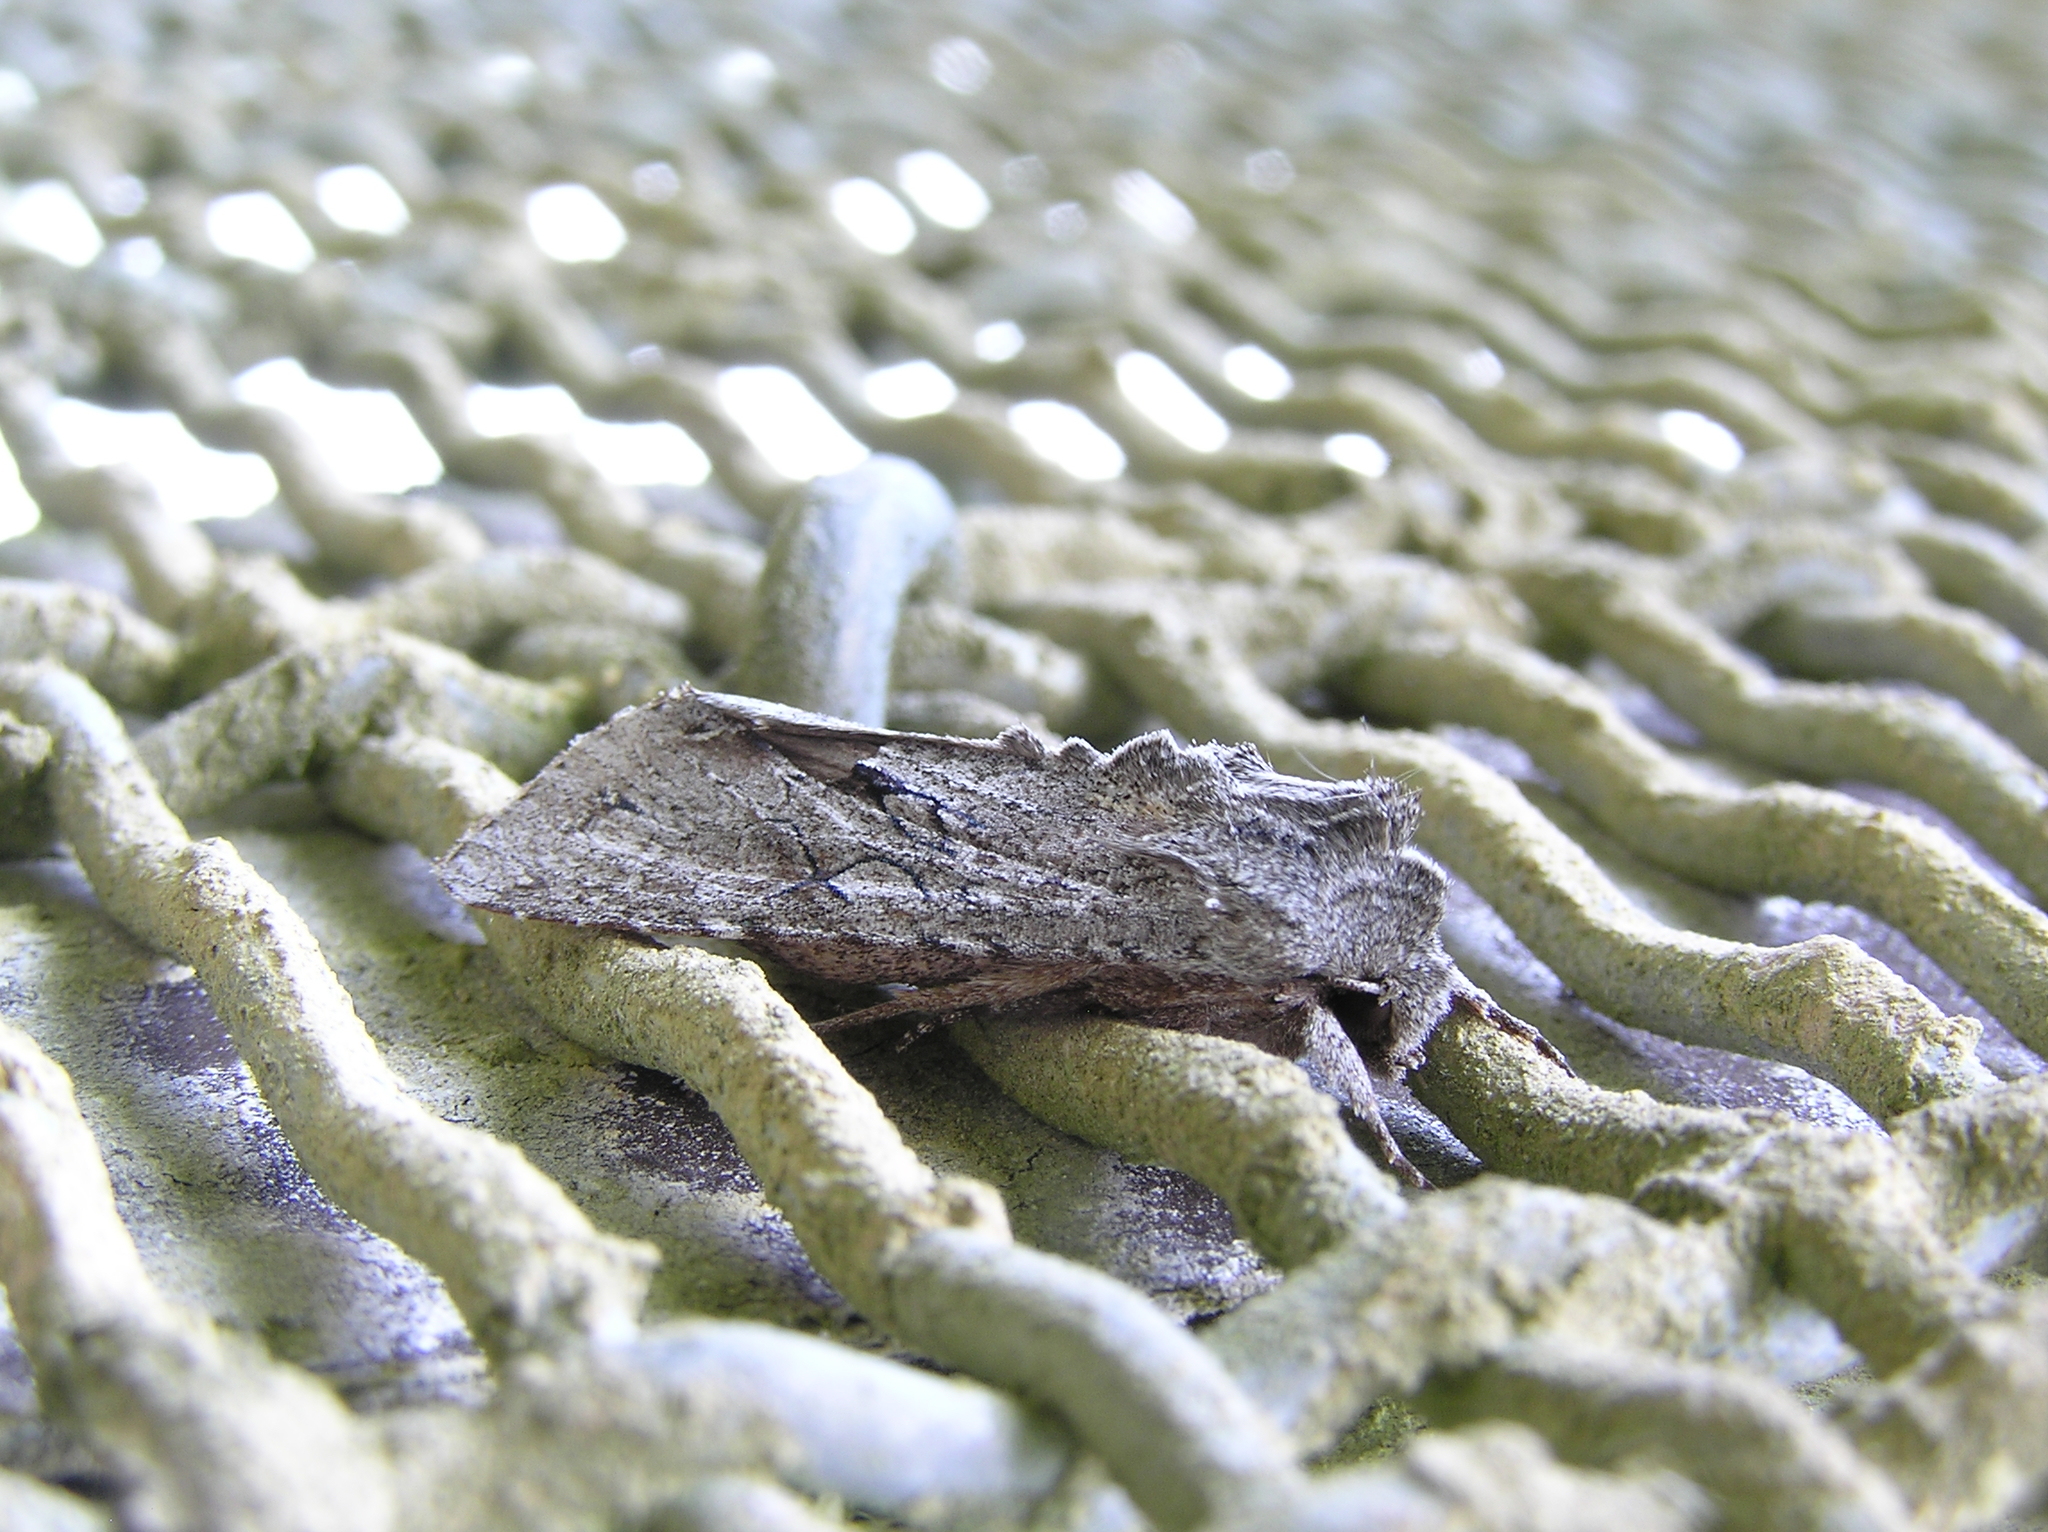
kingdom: Animalia
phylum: Arthropoda
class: Insecta
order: Lepidoptera
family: Noctuidae
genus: Ichneutica
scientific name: Ichneutica
